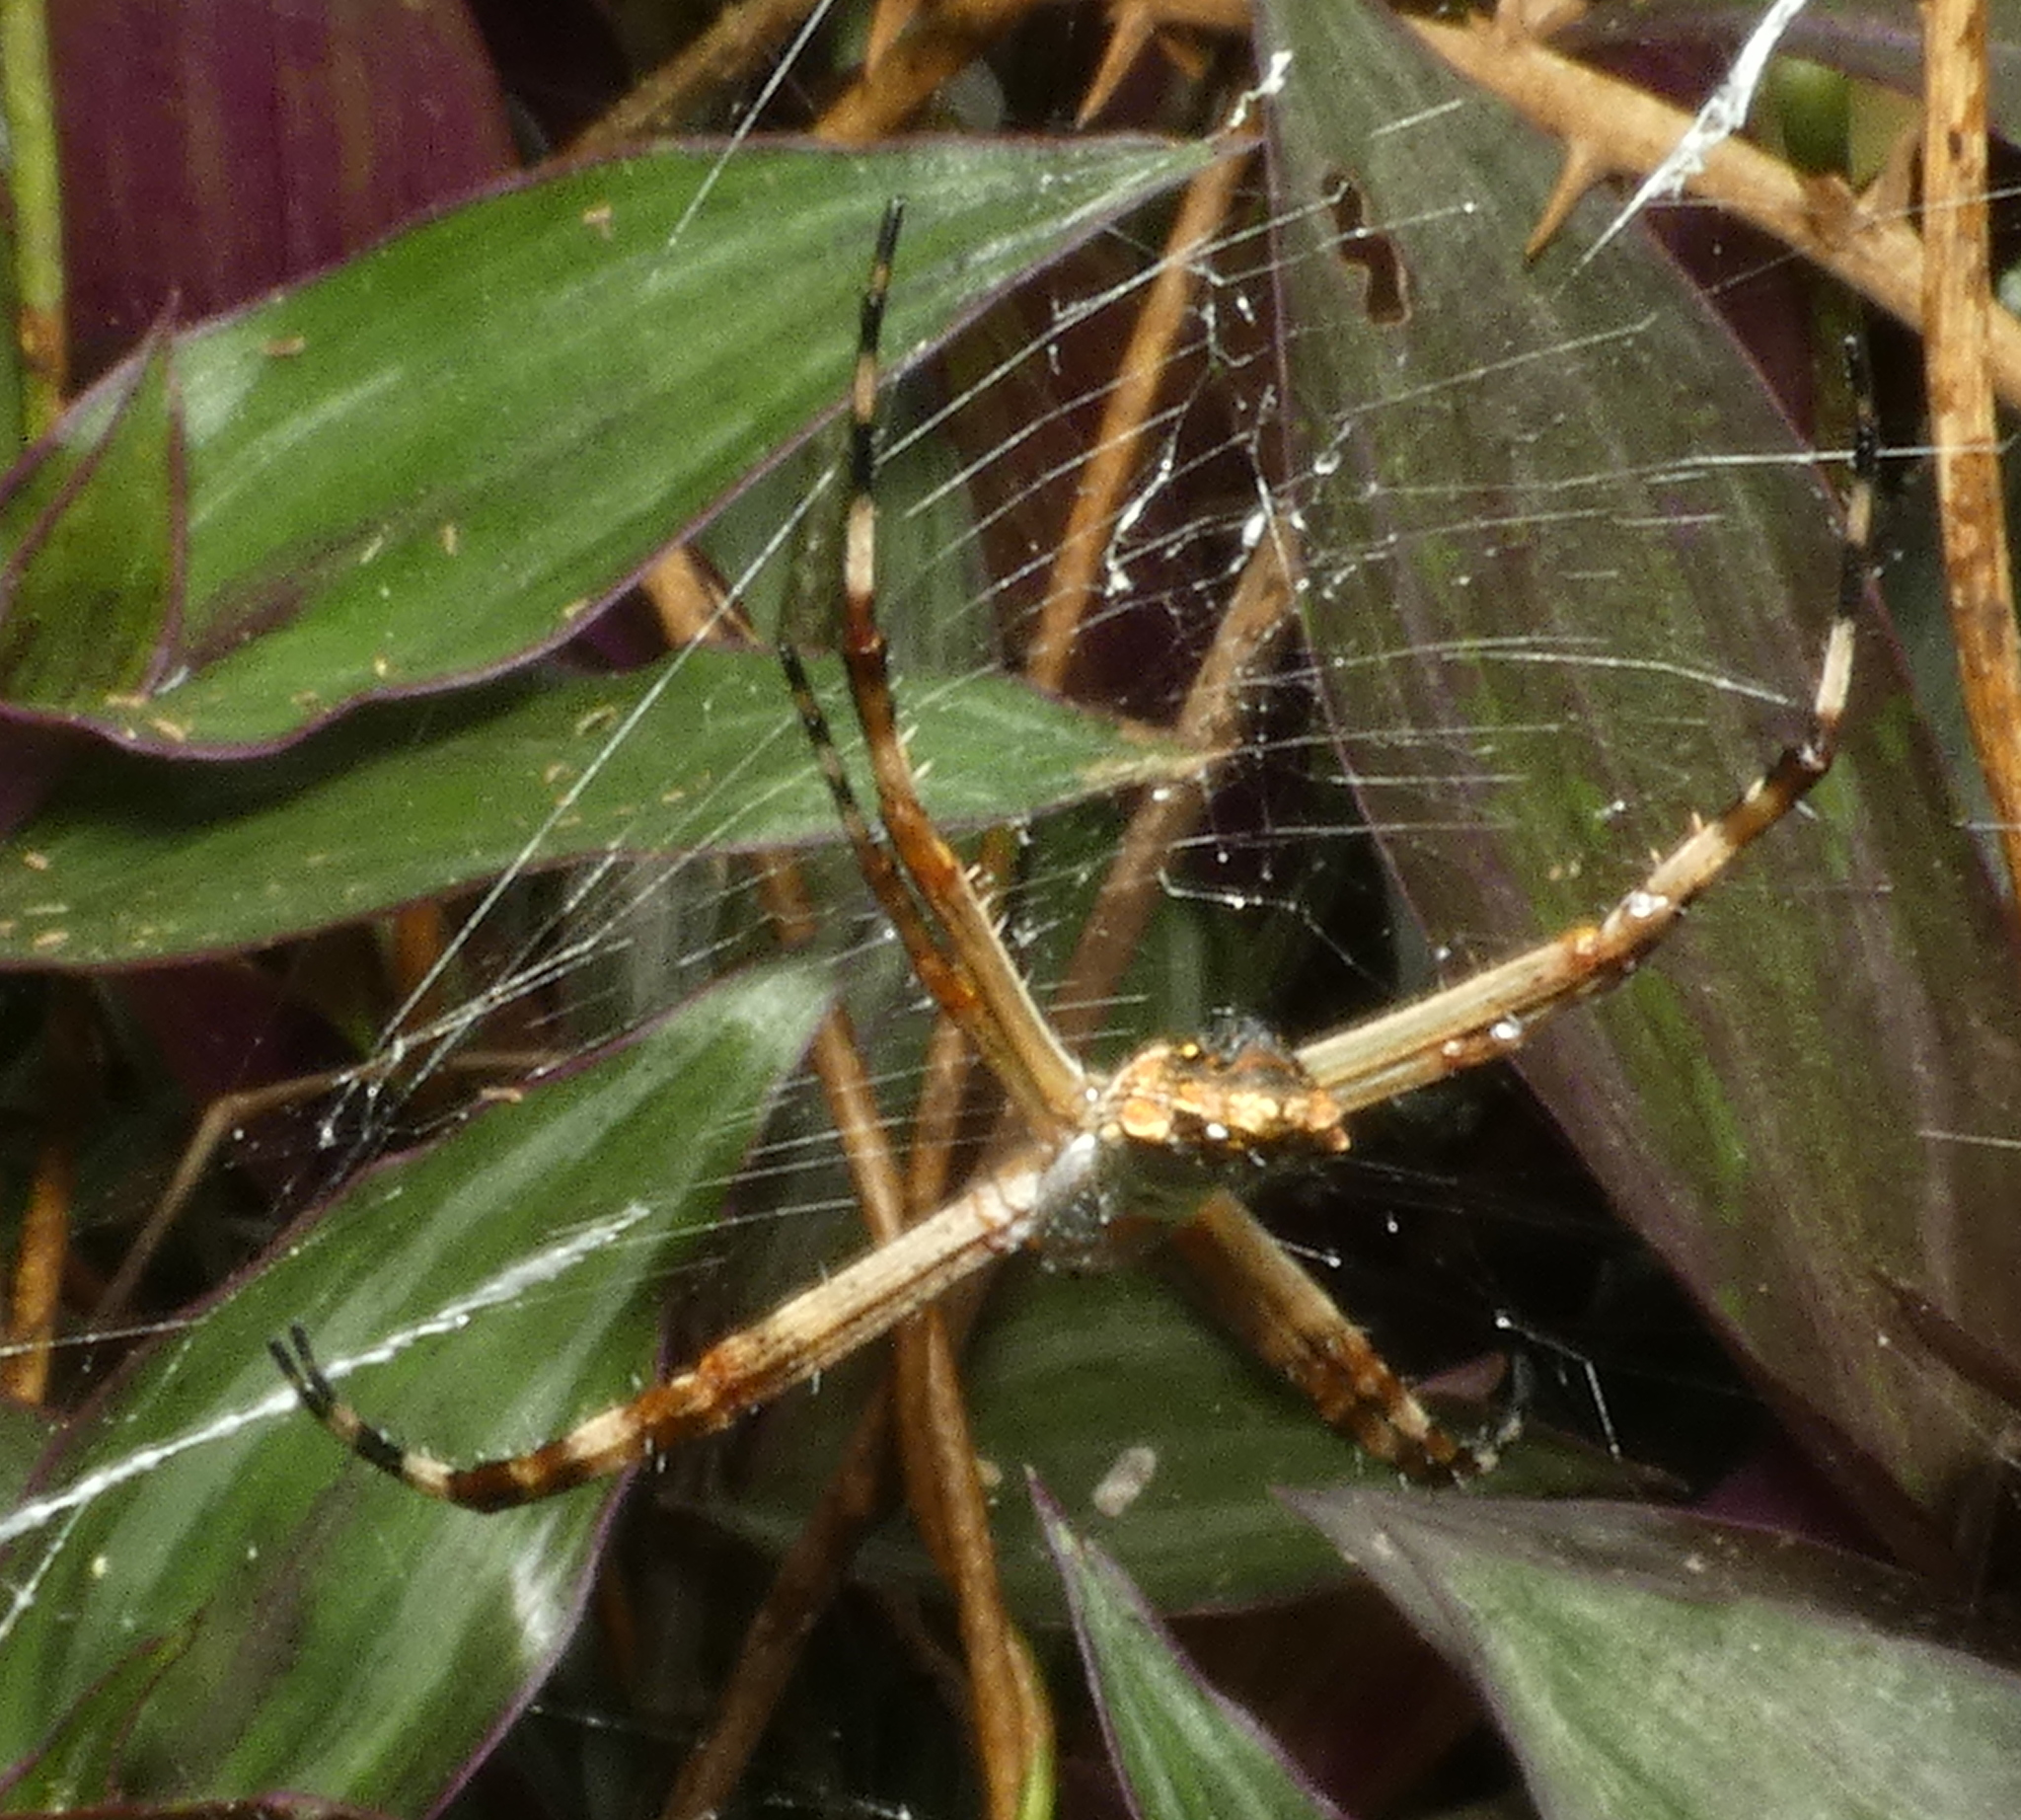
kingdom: Animalia
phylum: Arthropoda
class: Arachnida
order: Araneae
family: Araneidae
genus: Argiope
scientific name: Argiope argentata
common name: Orb weavers
